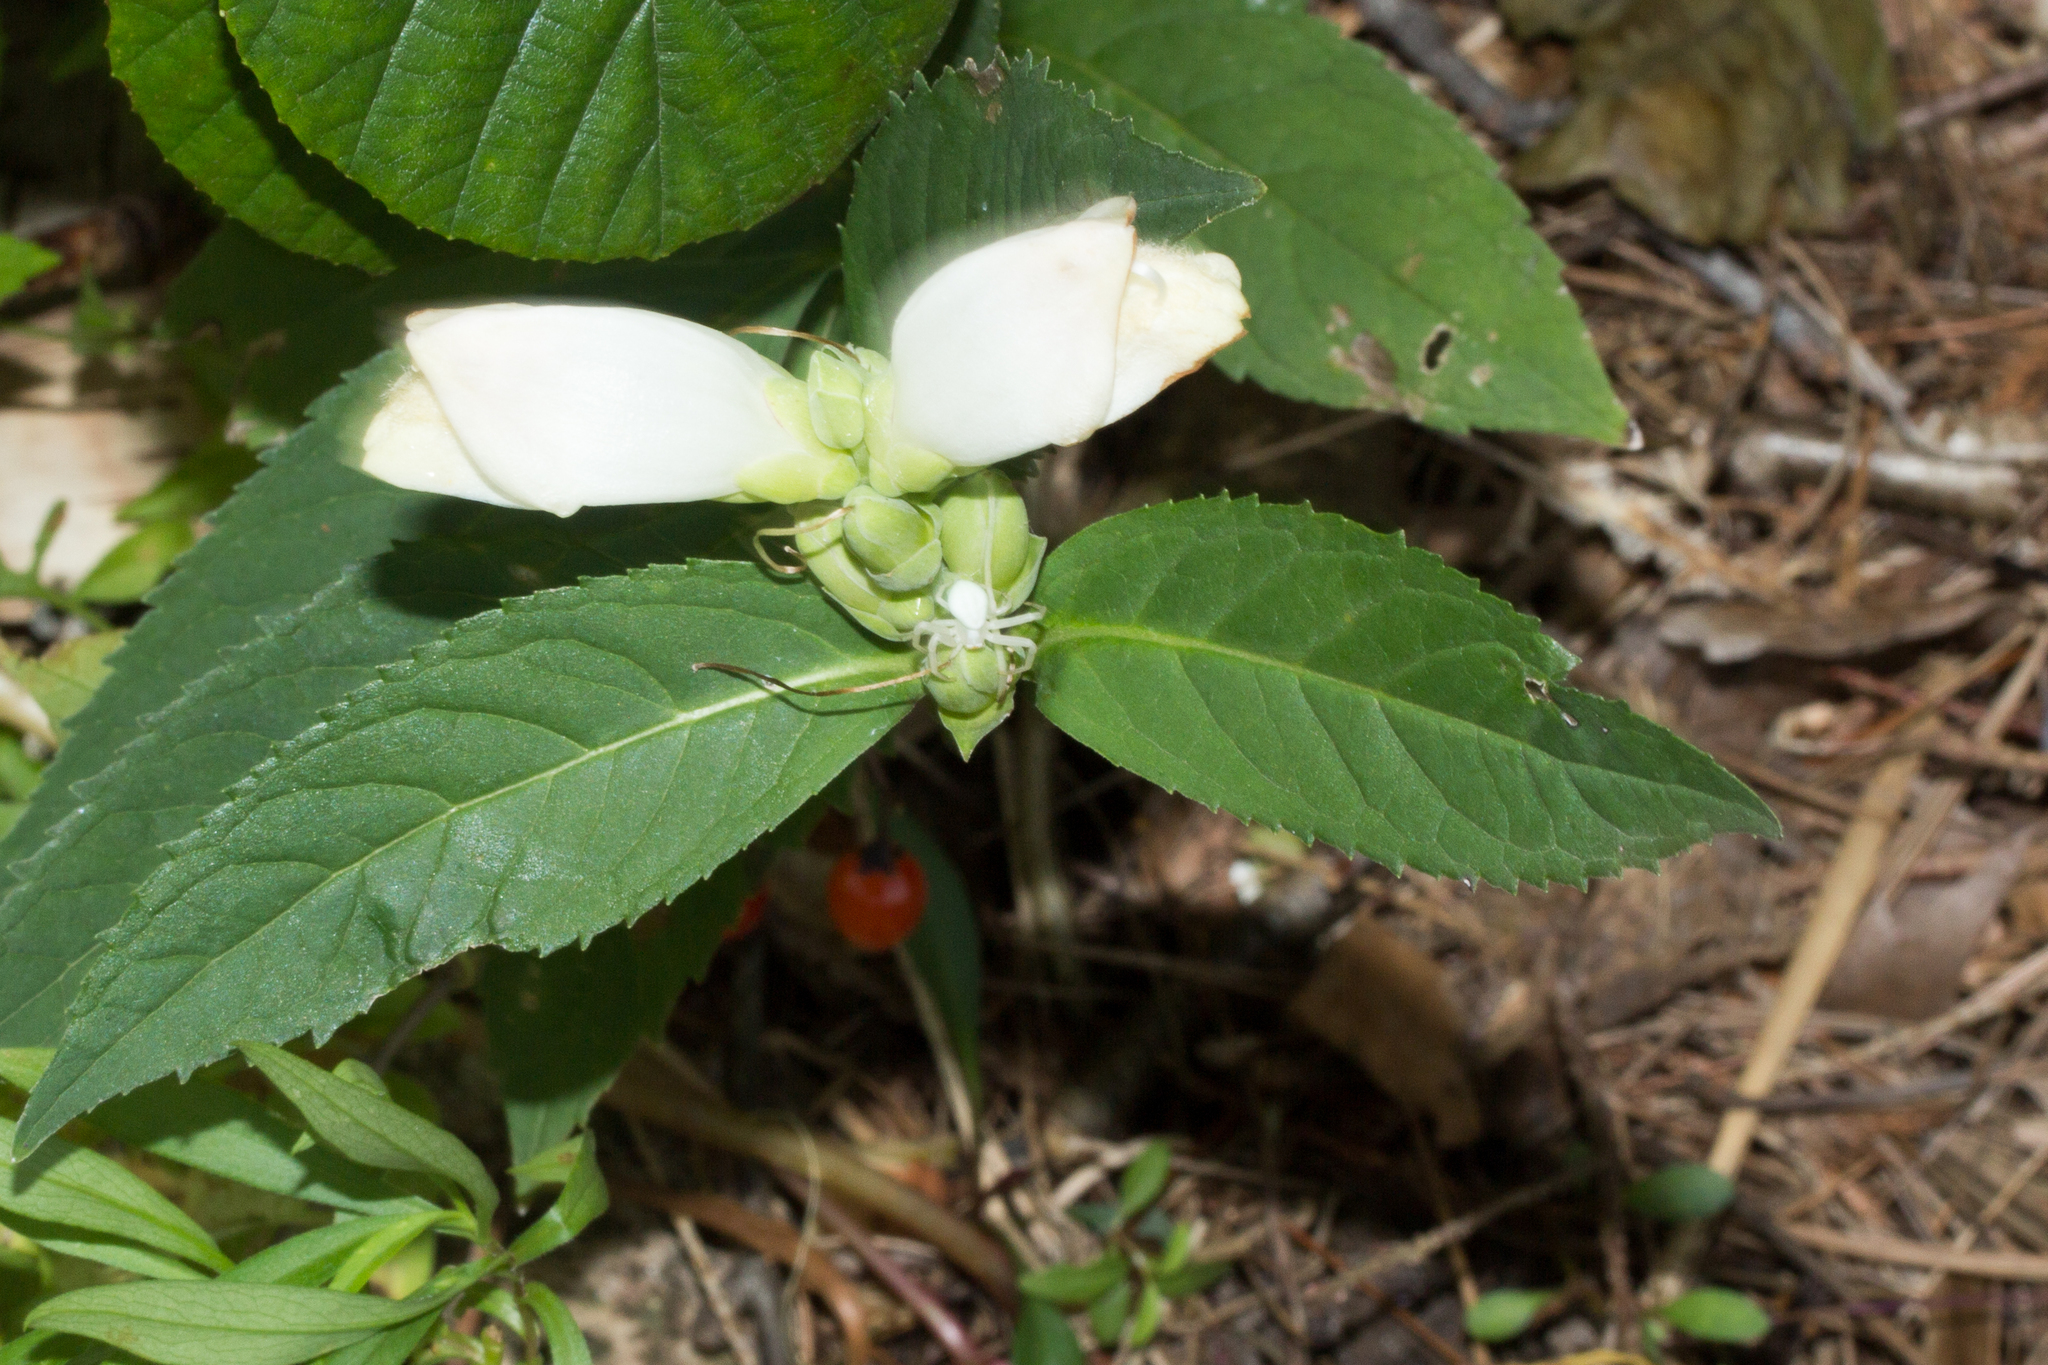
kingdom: Plantae
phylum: Tracheophyta
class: Magnoliopsida
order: Lamiales
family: Plantaginaceae
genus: Chelone
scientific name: Chelone glabra
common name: Snakehead
